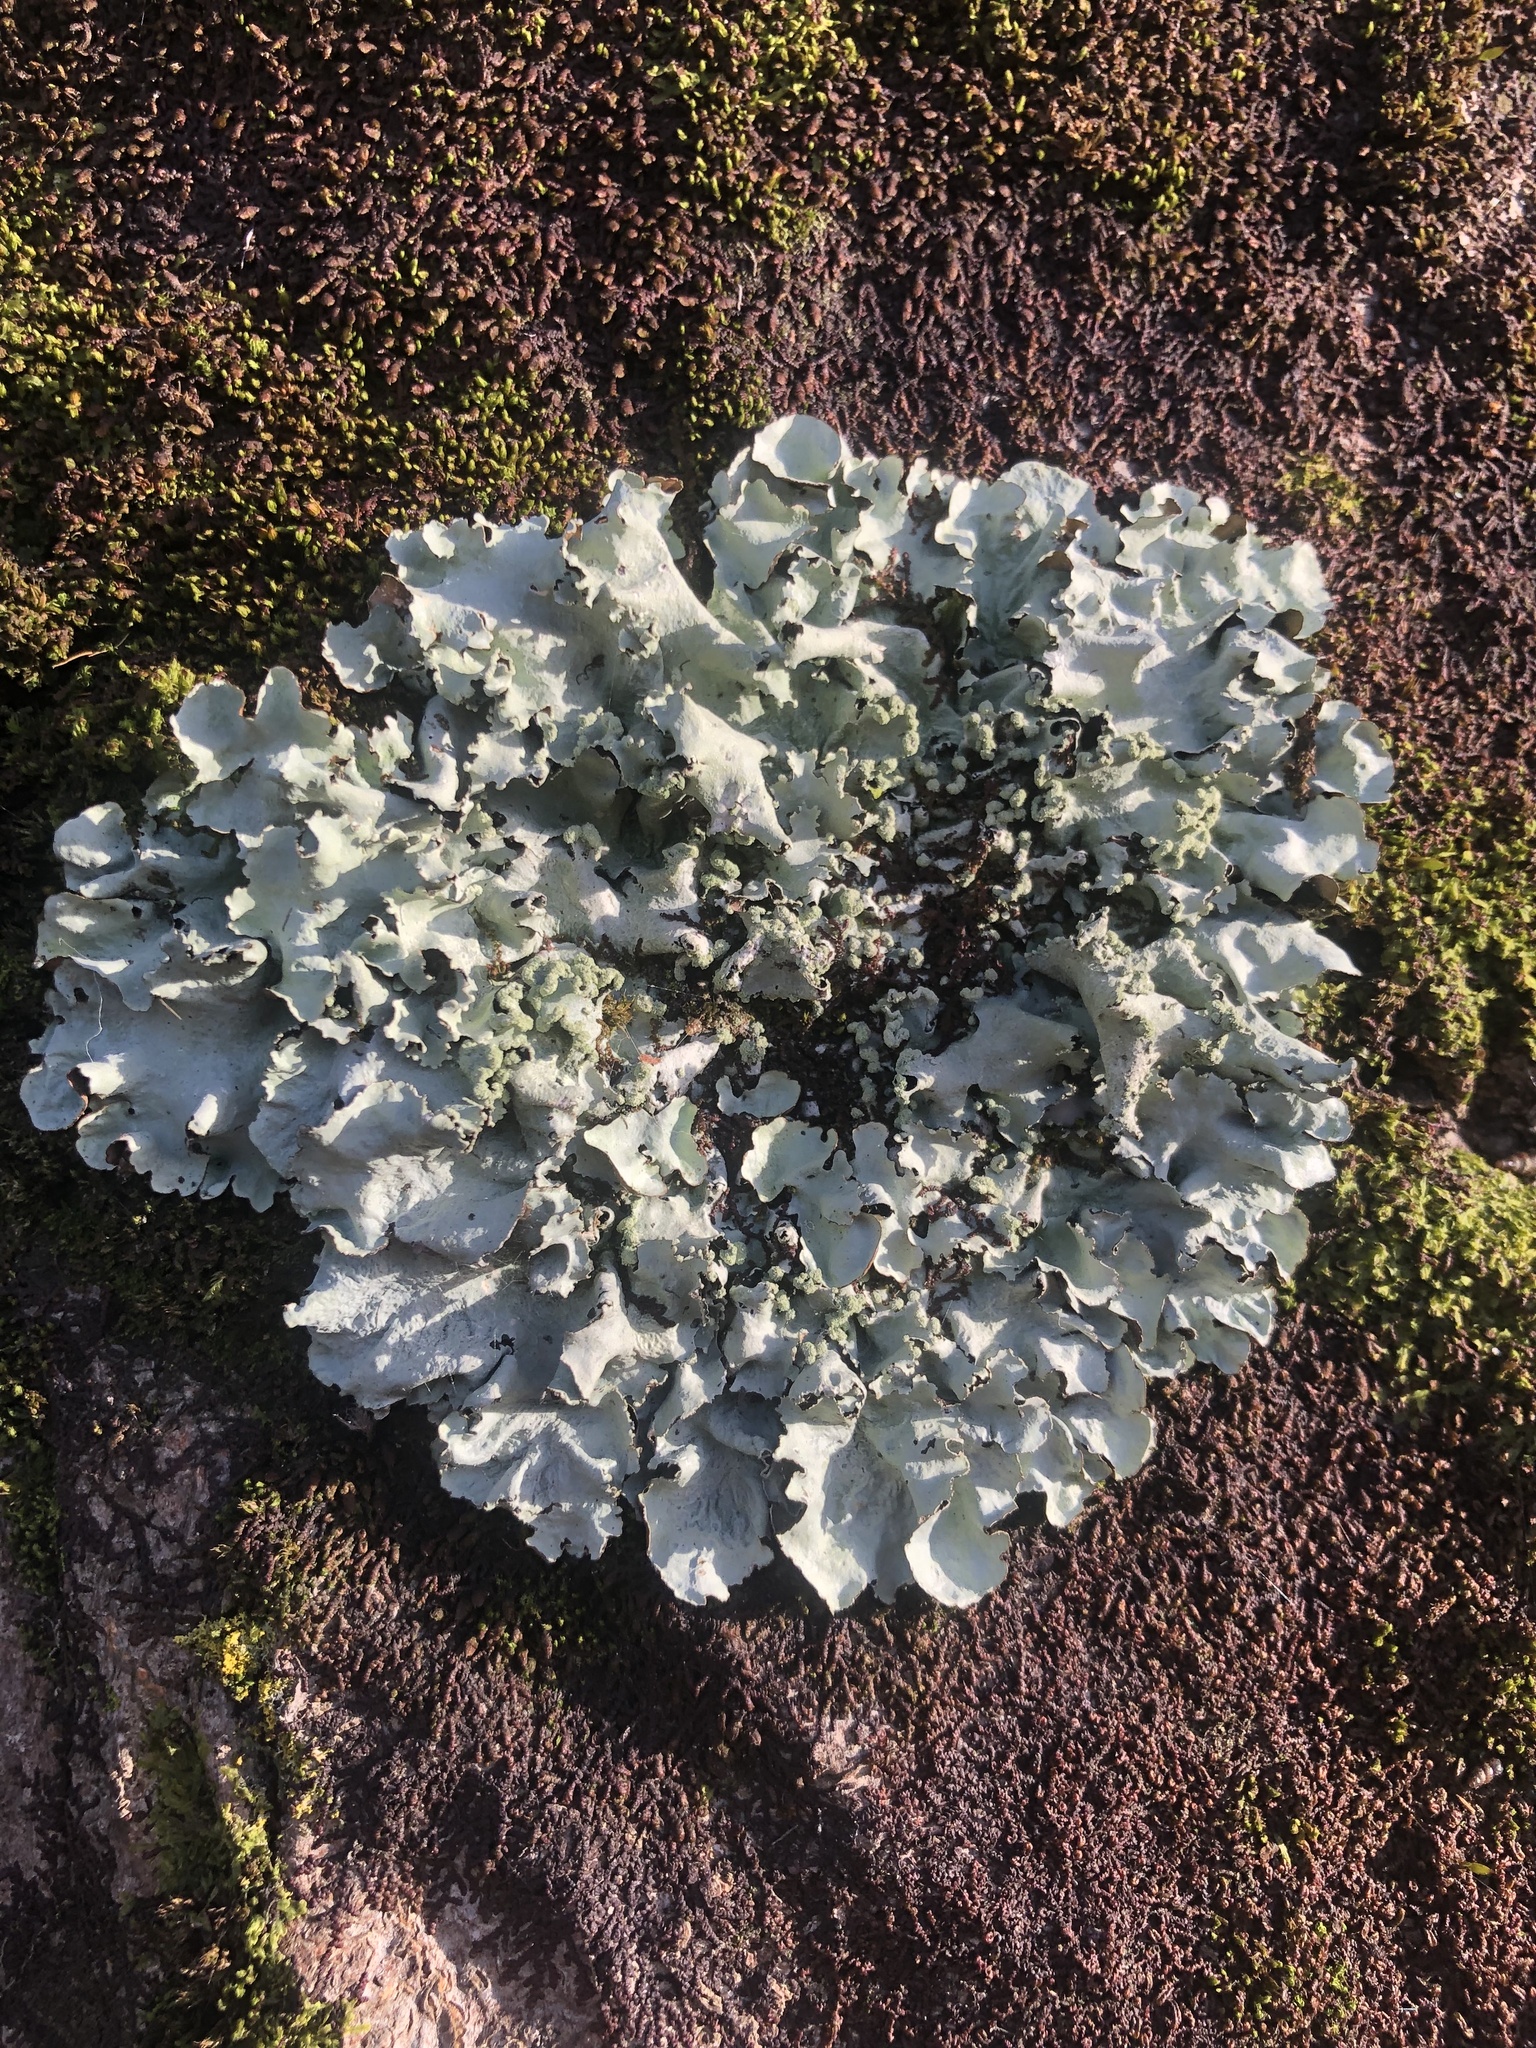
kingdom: Fungi
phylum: Ascomycota
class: Lecanoromycetes
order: Lecanorales
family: Parmeliaceae
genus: Flavoparmelia
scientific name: Flavoparmelia caperata
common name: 40-mile per hour lichen
